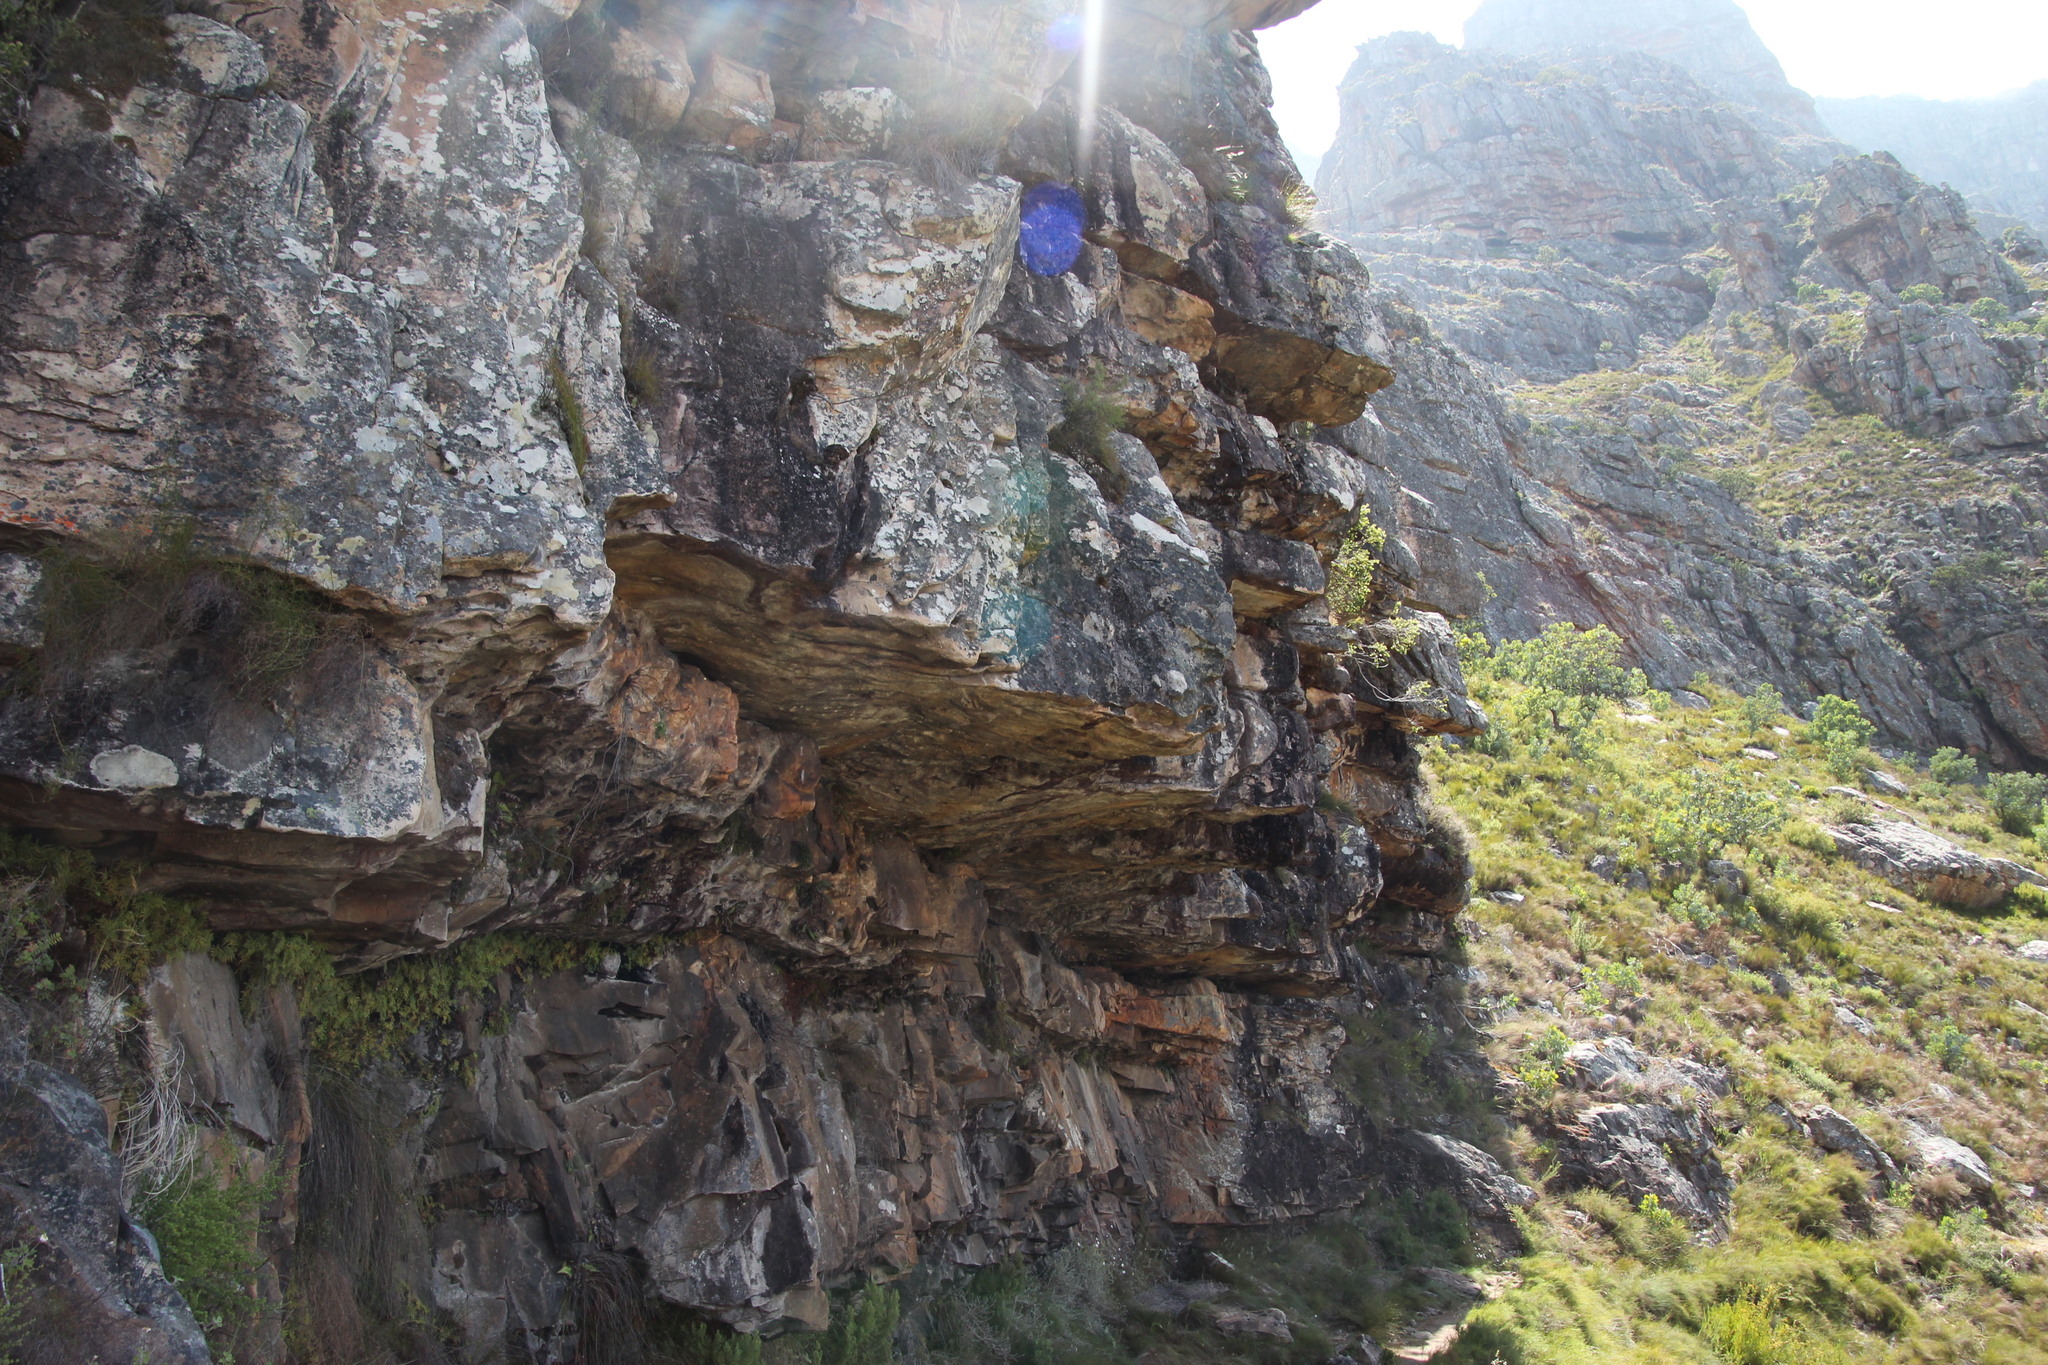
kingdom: Plantae
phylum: Tracheophyta
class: Polypodiopsida
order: Gleicheniales
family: Gleicheniaceae
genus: Gleichenia
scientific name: Gleichenia polypodioides
